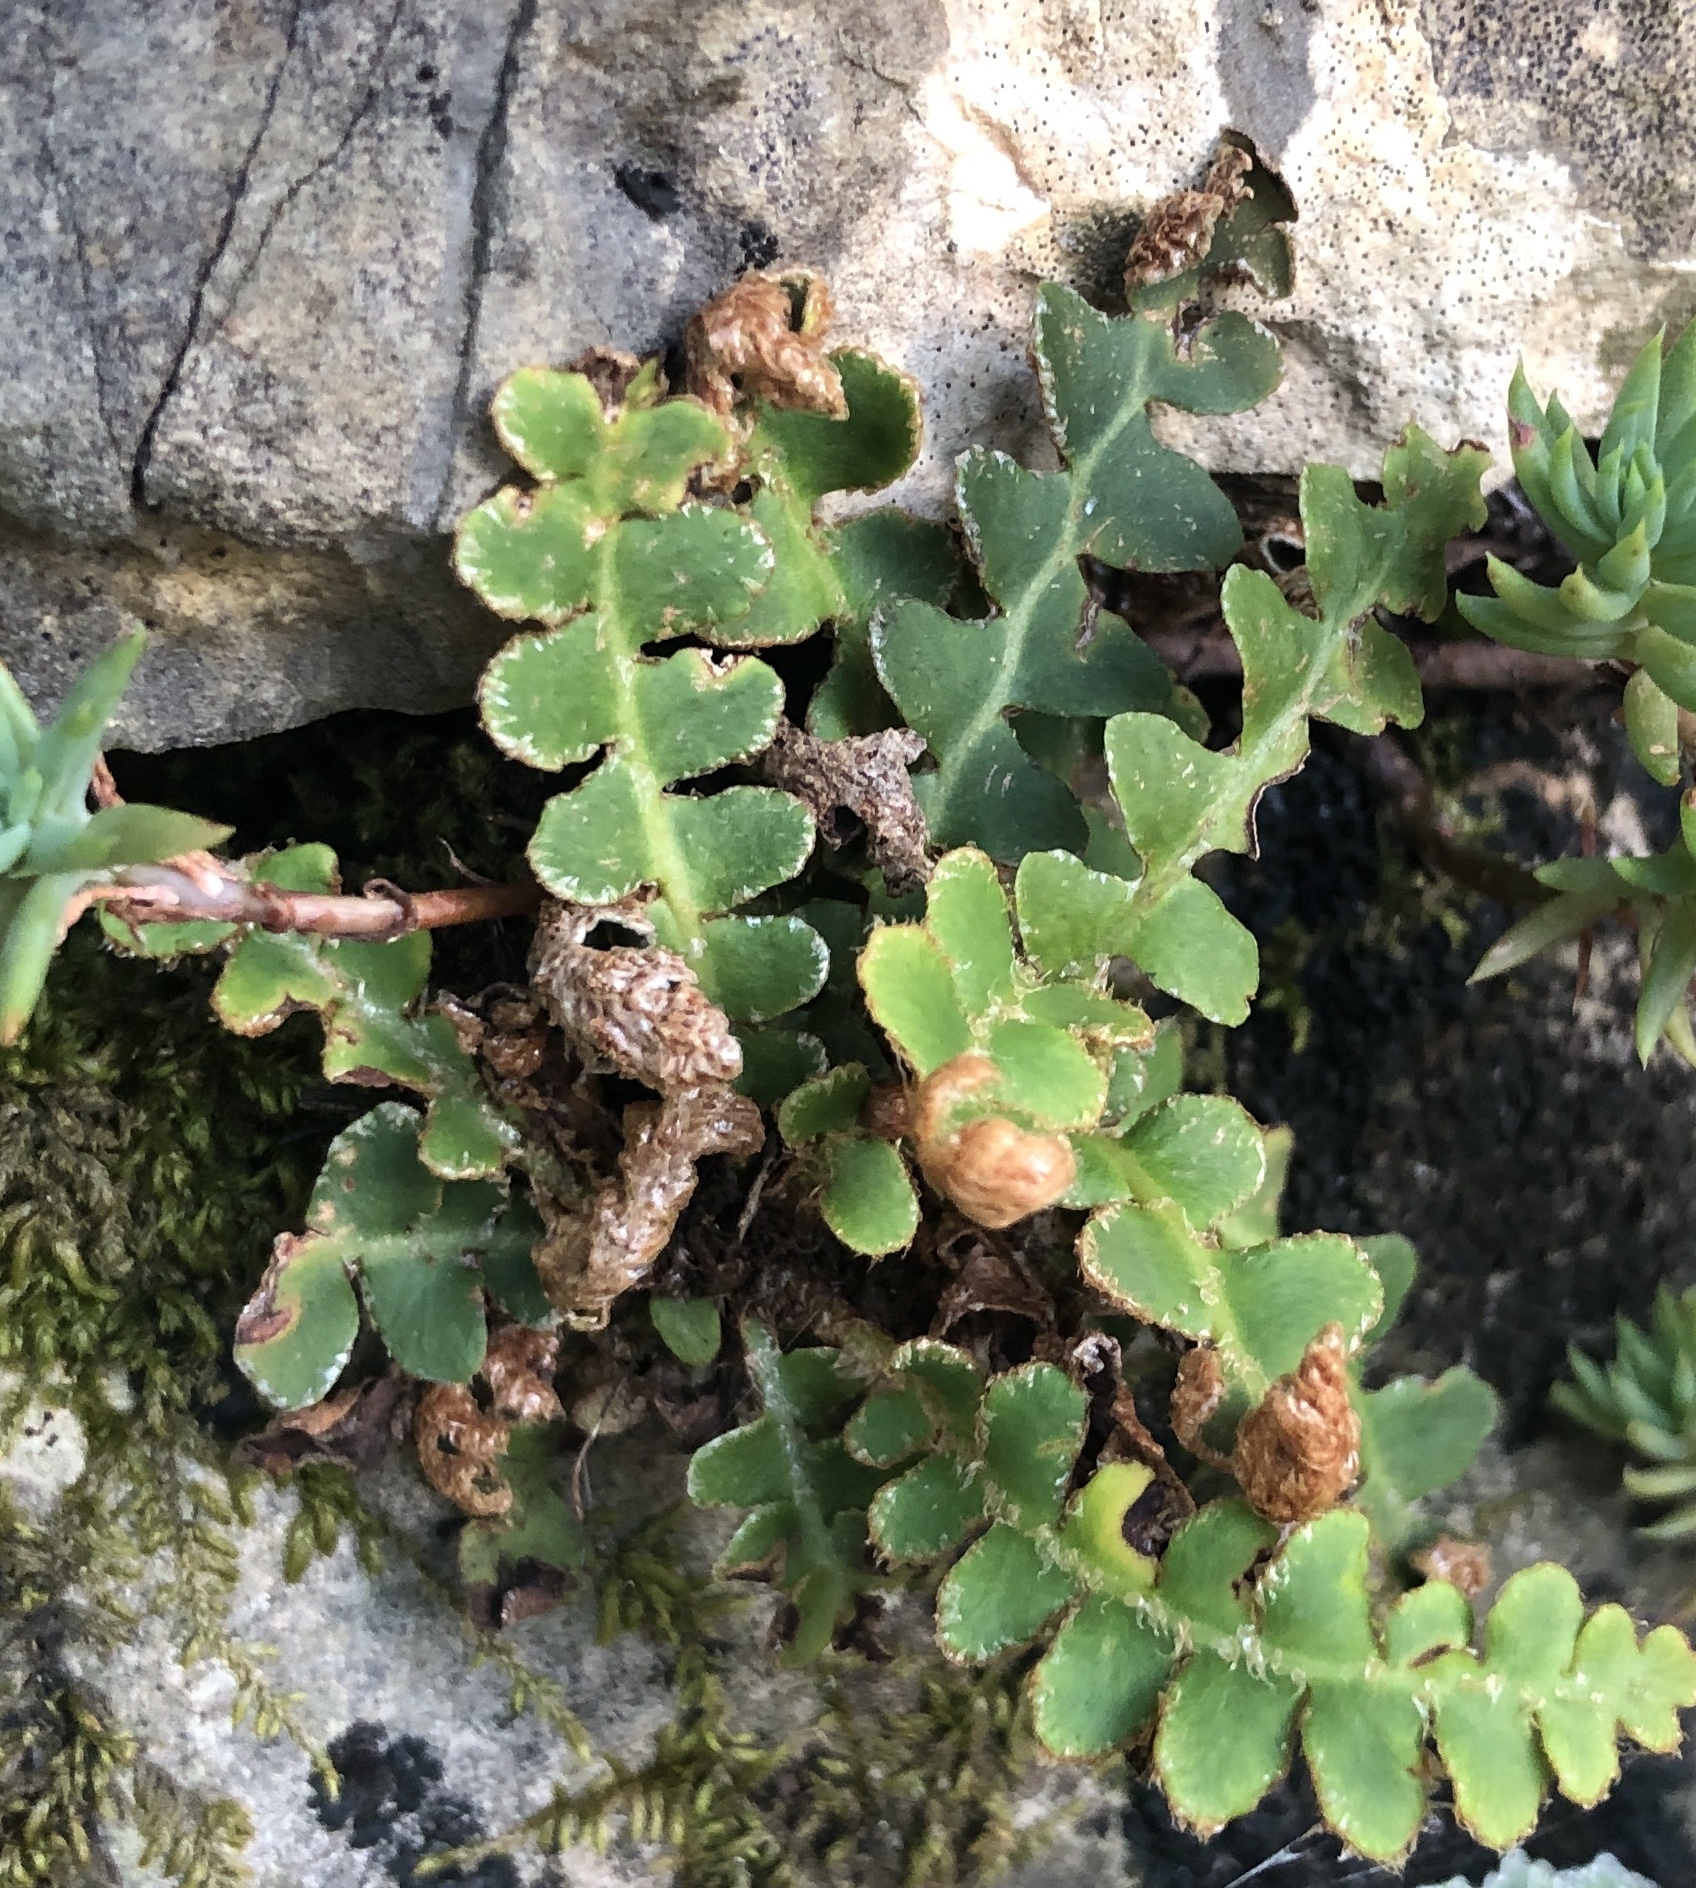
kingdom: Plantae
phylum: Tracheophyta
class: Polypodiopsida
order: Polypodiales
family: Aspleniaceae
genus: Asplenium
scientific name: Asplenium ceterach
